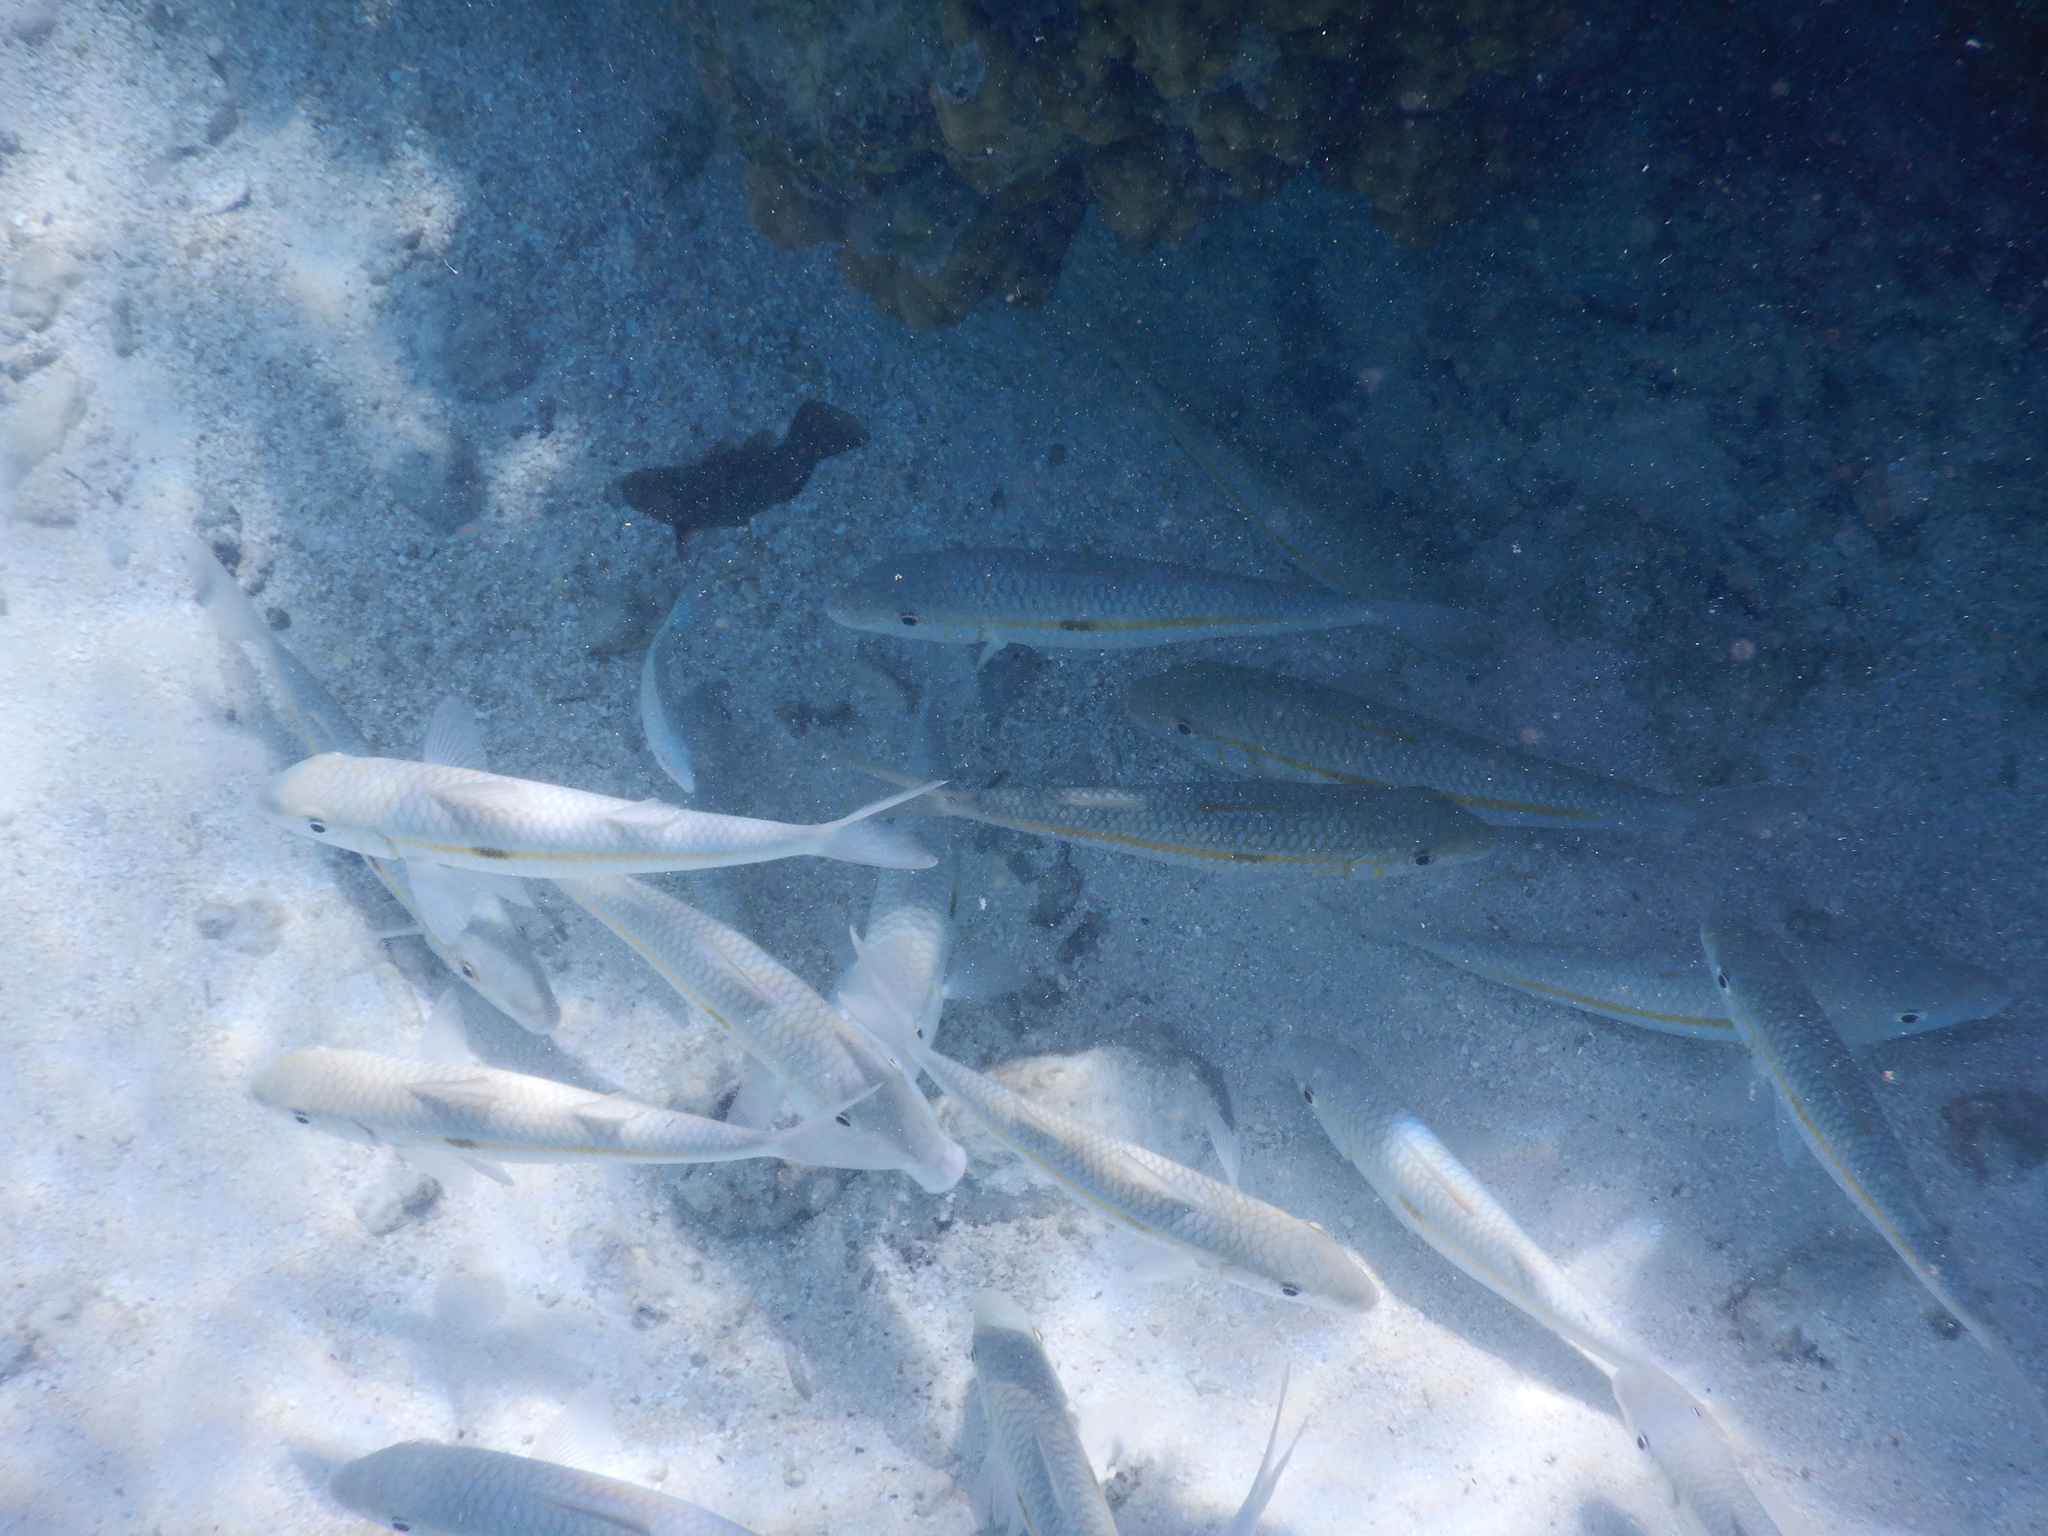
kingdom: Animalia
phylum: Chordata
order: Perciformes
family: Mullidae
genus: Mulloidichthys
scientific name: Mulloidichthys flavolineatus
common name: Yellowstripe goatfish
